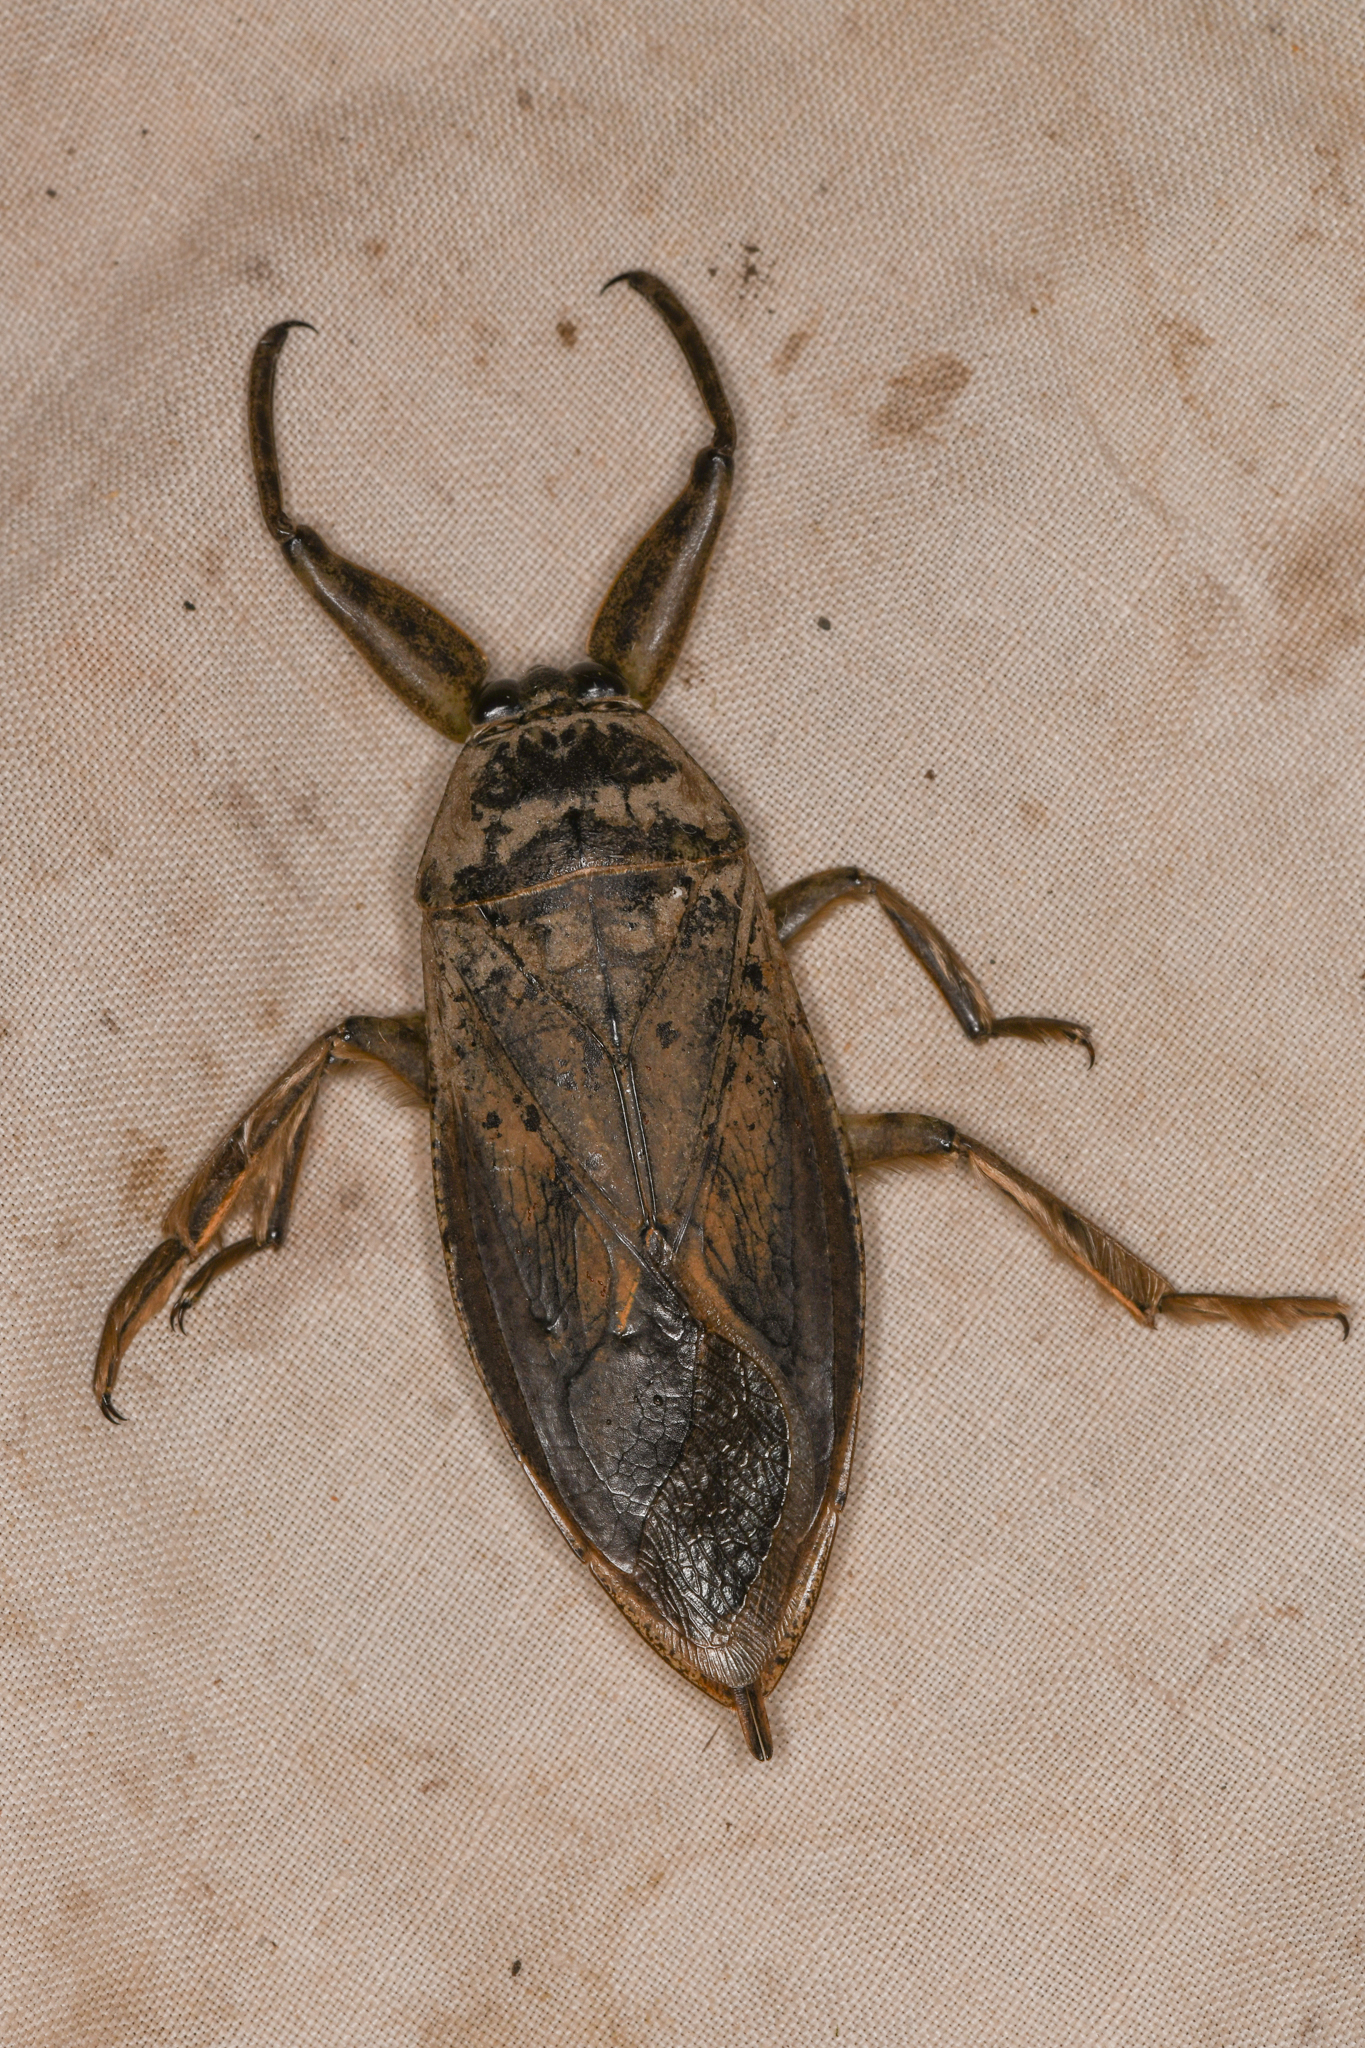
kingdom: Animalia
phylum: Arthropoda
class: Insecta
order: Hemiptera
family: Belostomatidae
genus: Lethocerus
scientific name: Lethocerus americanus
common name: Giant water bug
